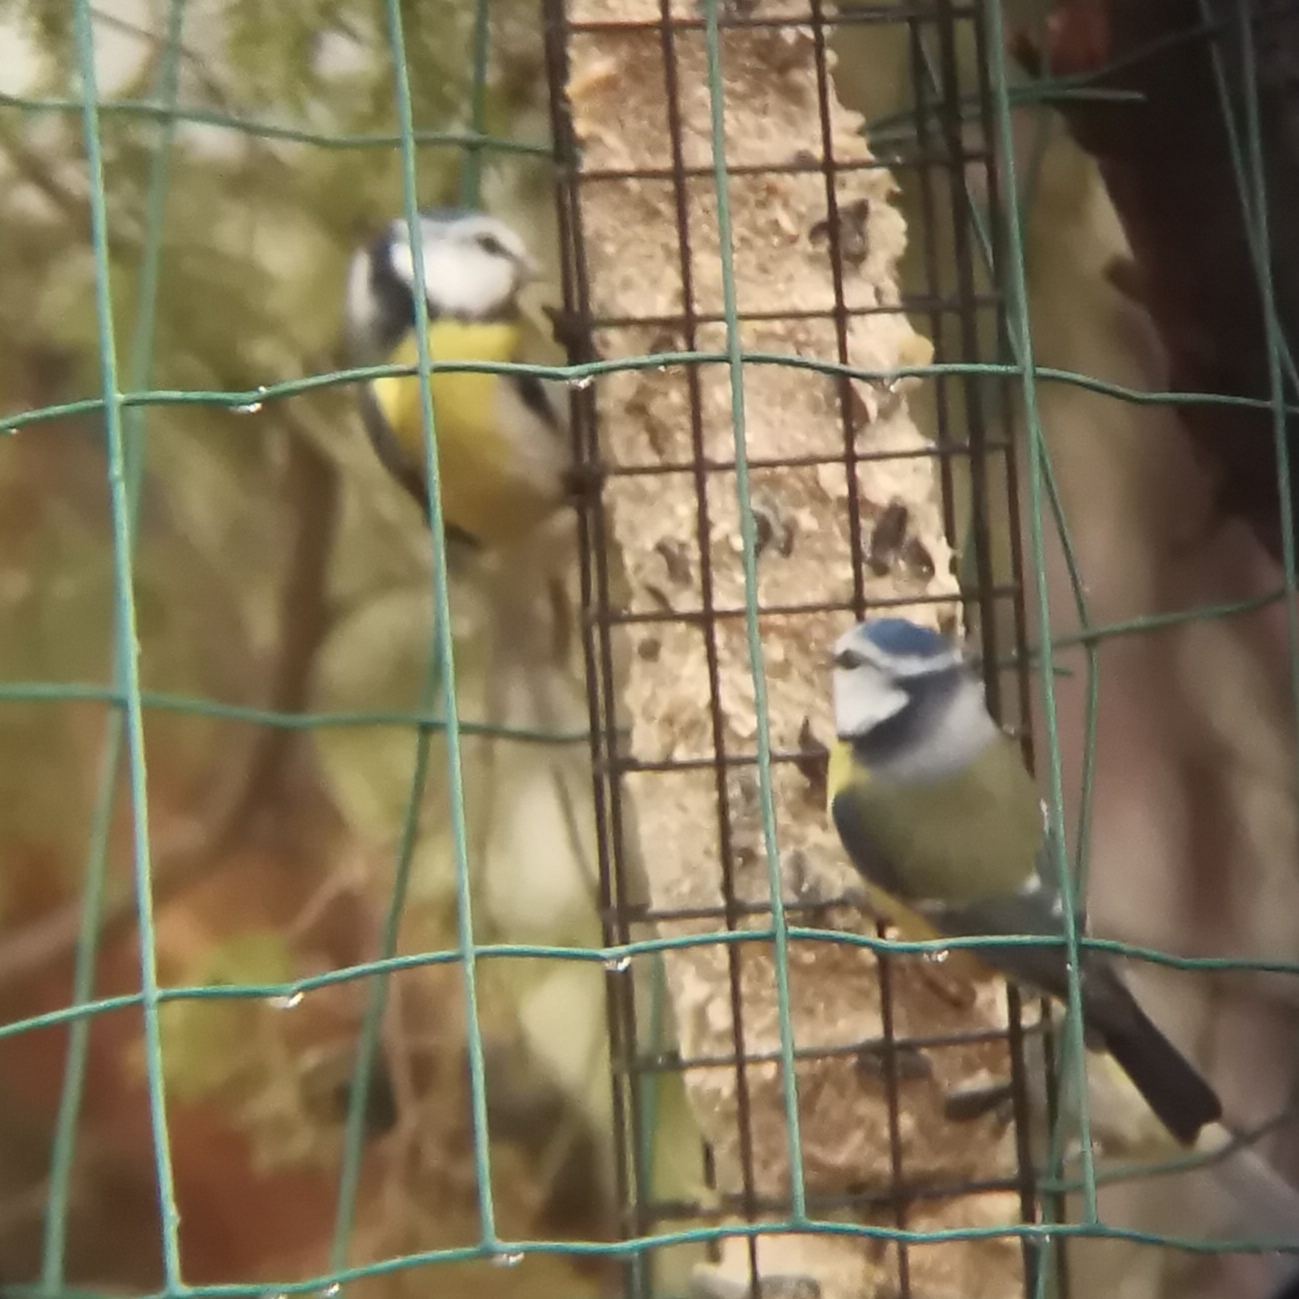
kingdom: Animalia
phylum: Chordata
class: Aves
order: Passeriformes
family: Paridae
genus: Cyanistes
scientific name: Cyanistes caeruleus
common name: Eurasian blue tit
